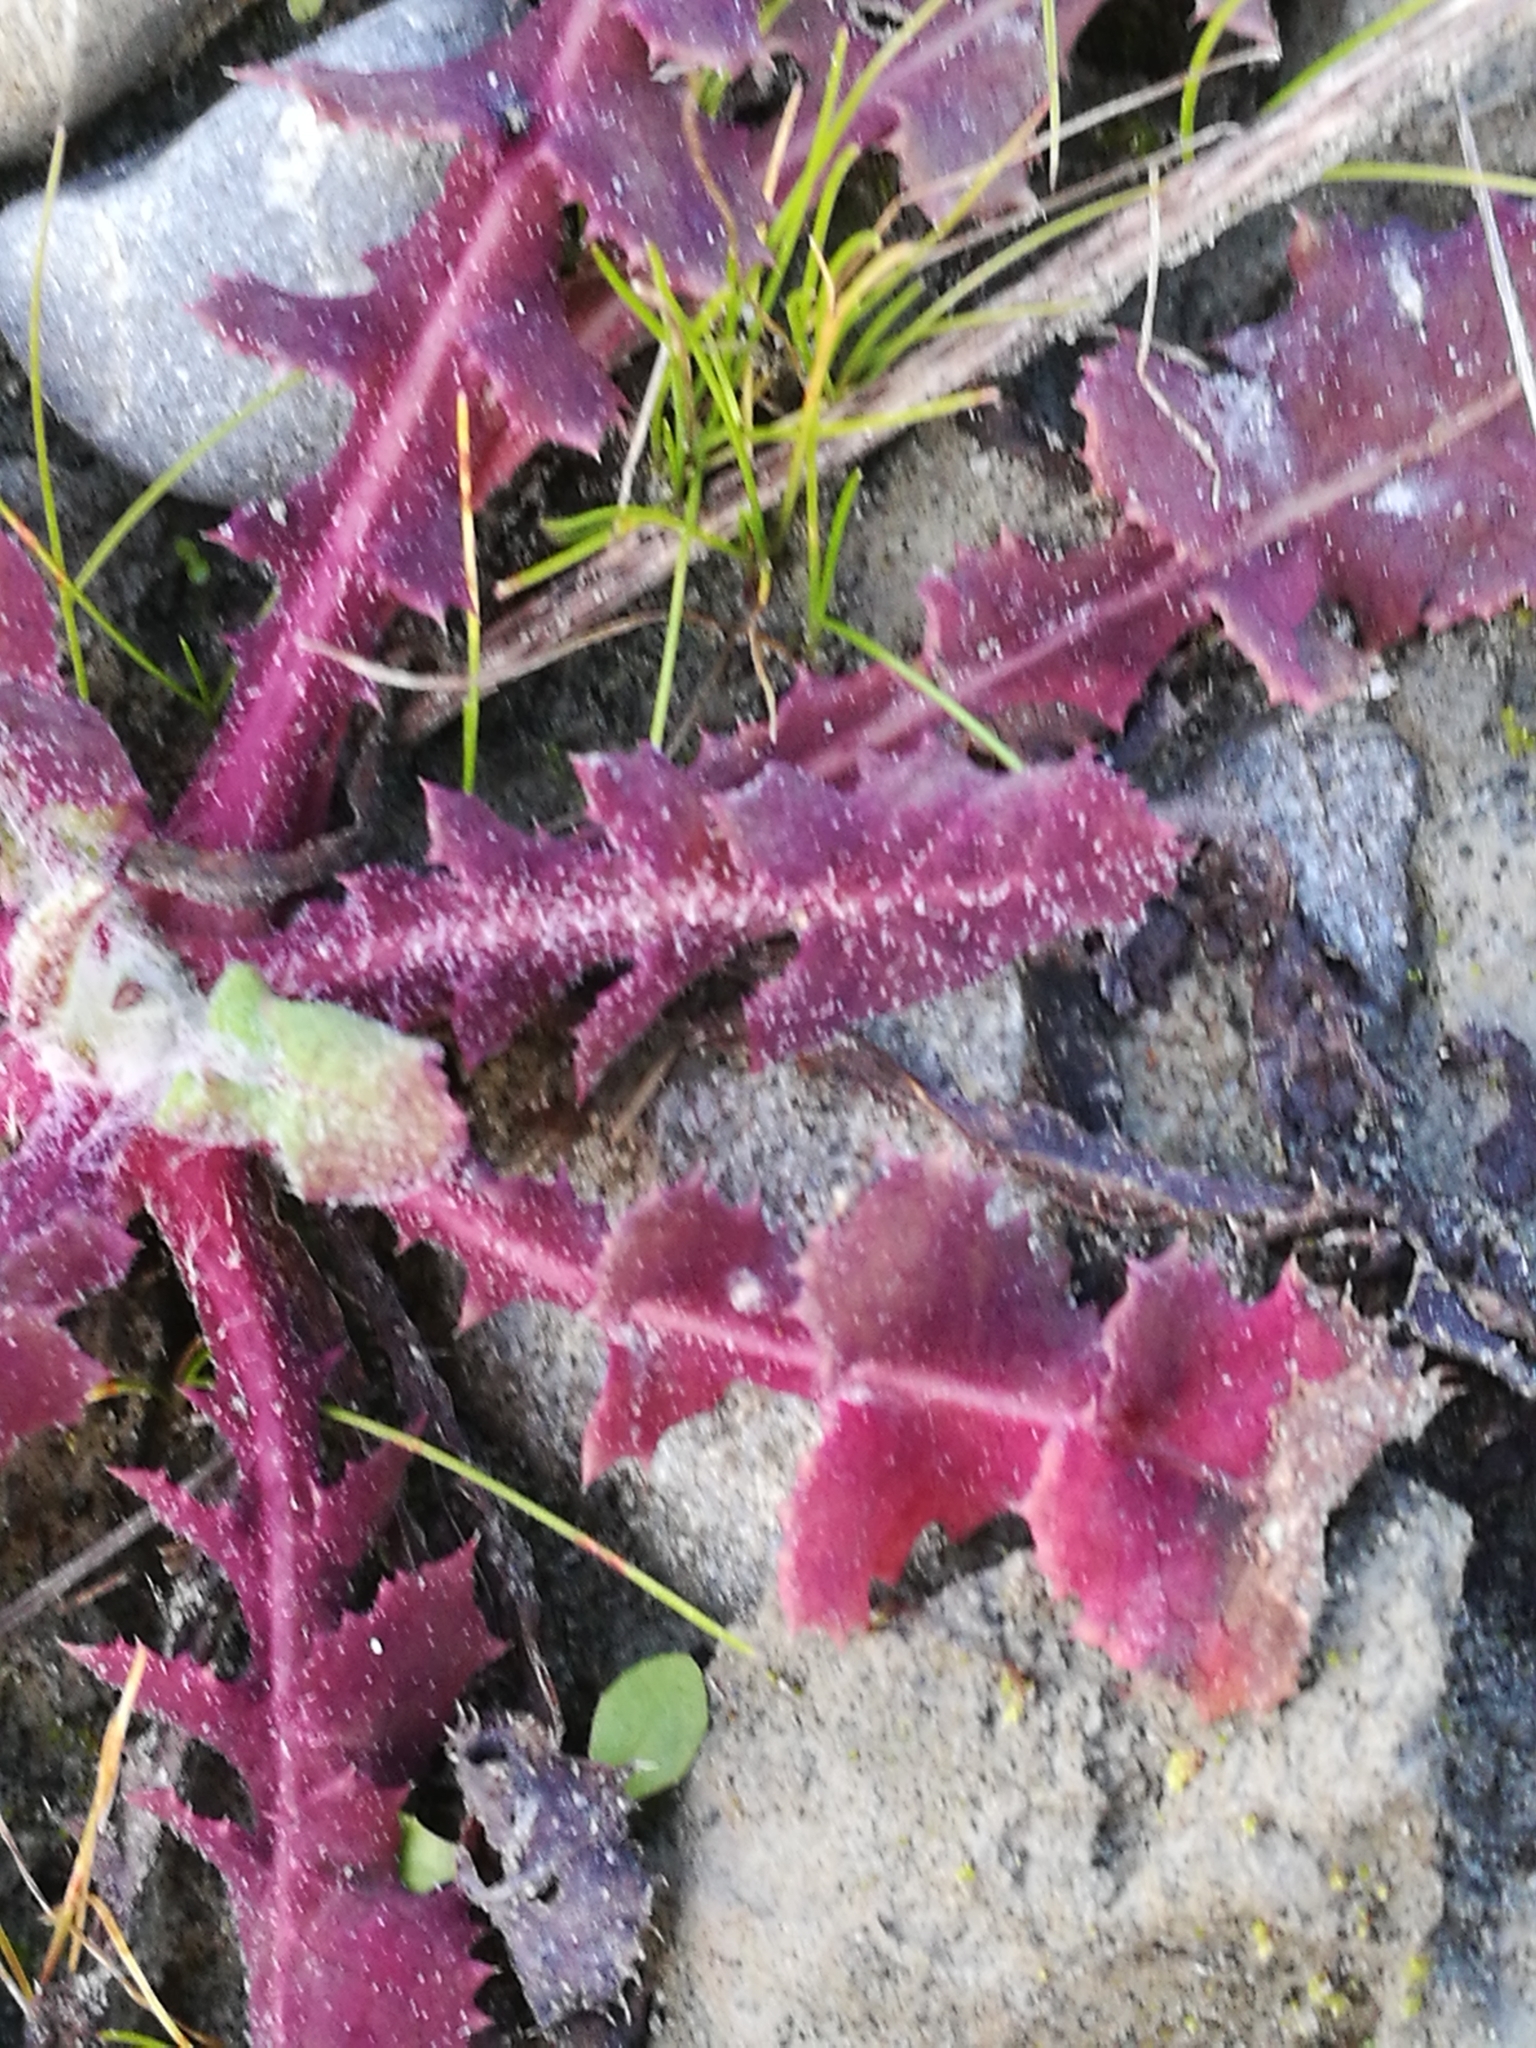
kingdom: Plantae
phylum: Tracheophyta
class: Magnoliopsida
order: Asterales
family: Asteraceae
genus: Sonchus
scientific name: Sonchus oleraceus
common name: Common sowthistle
